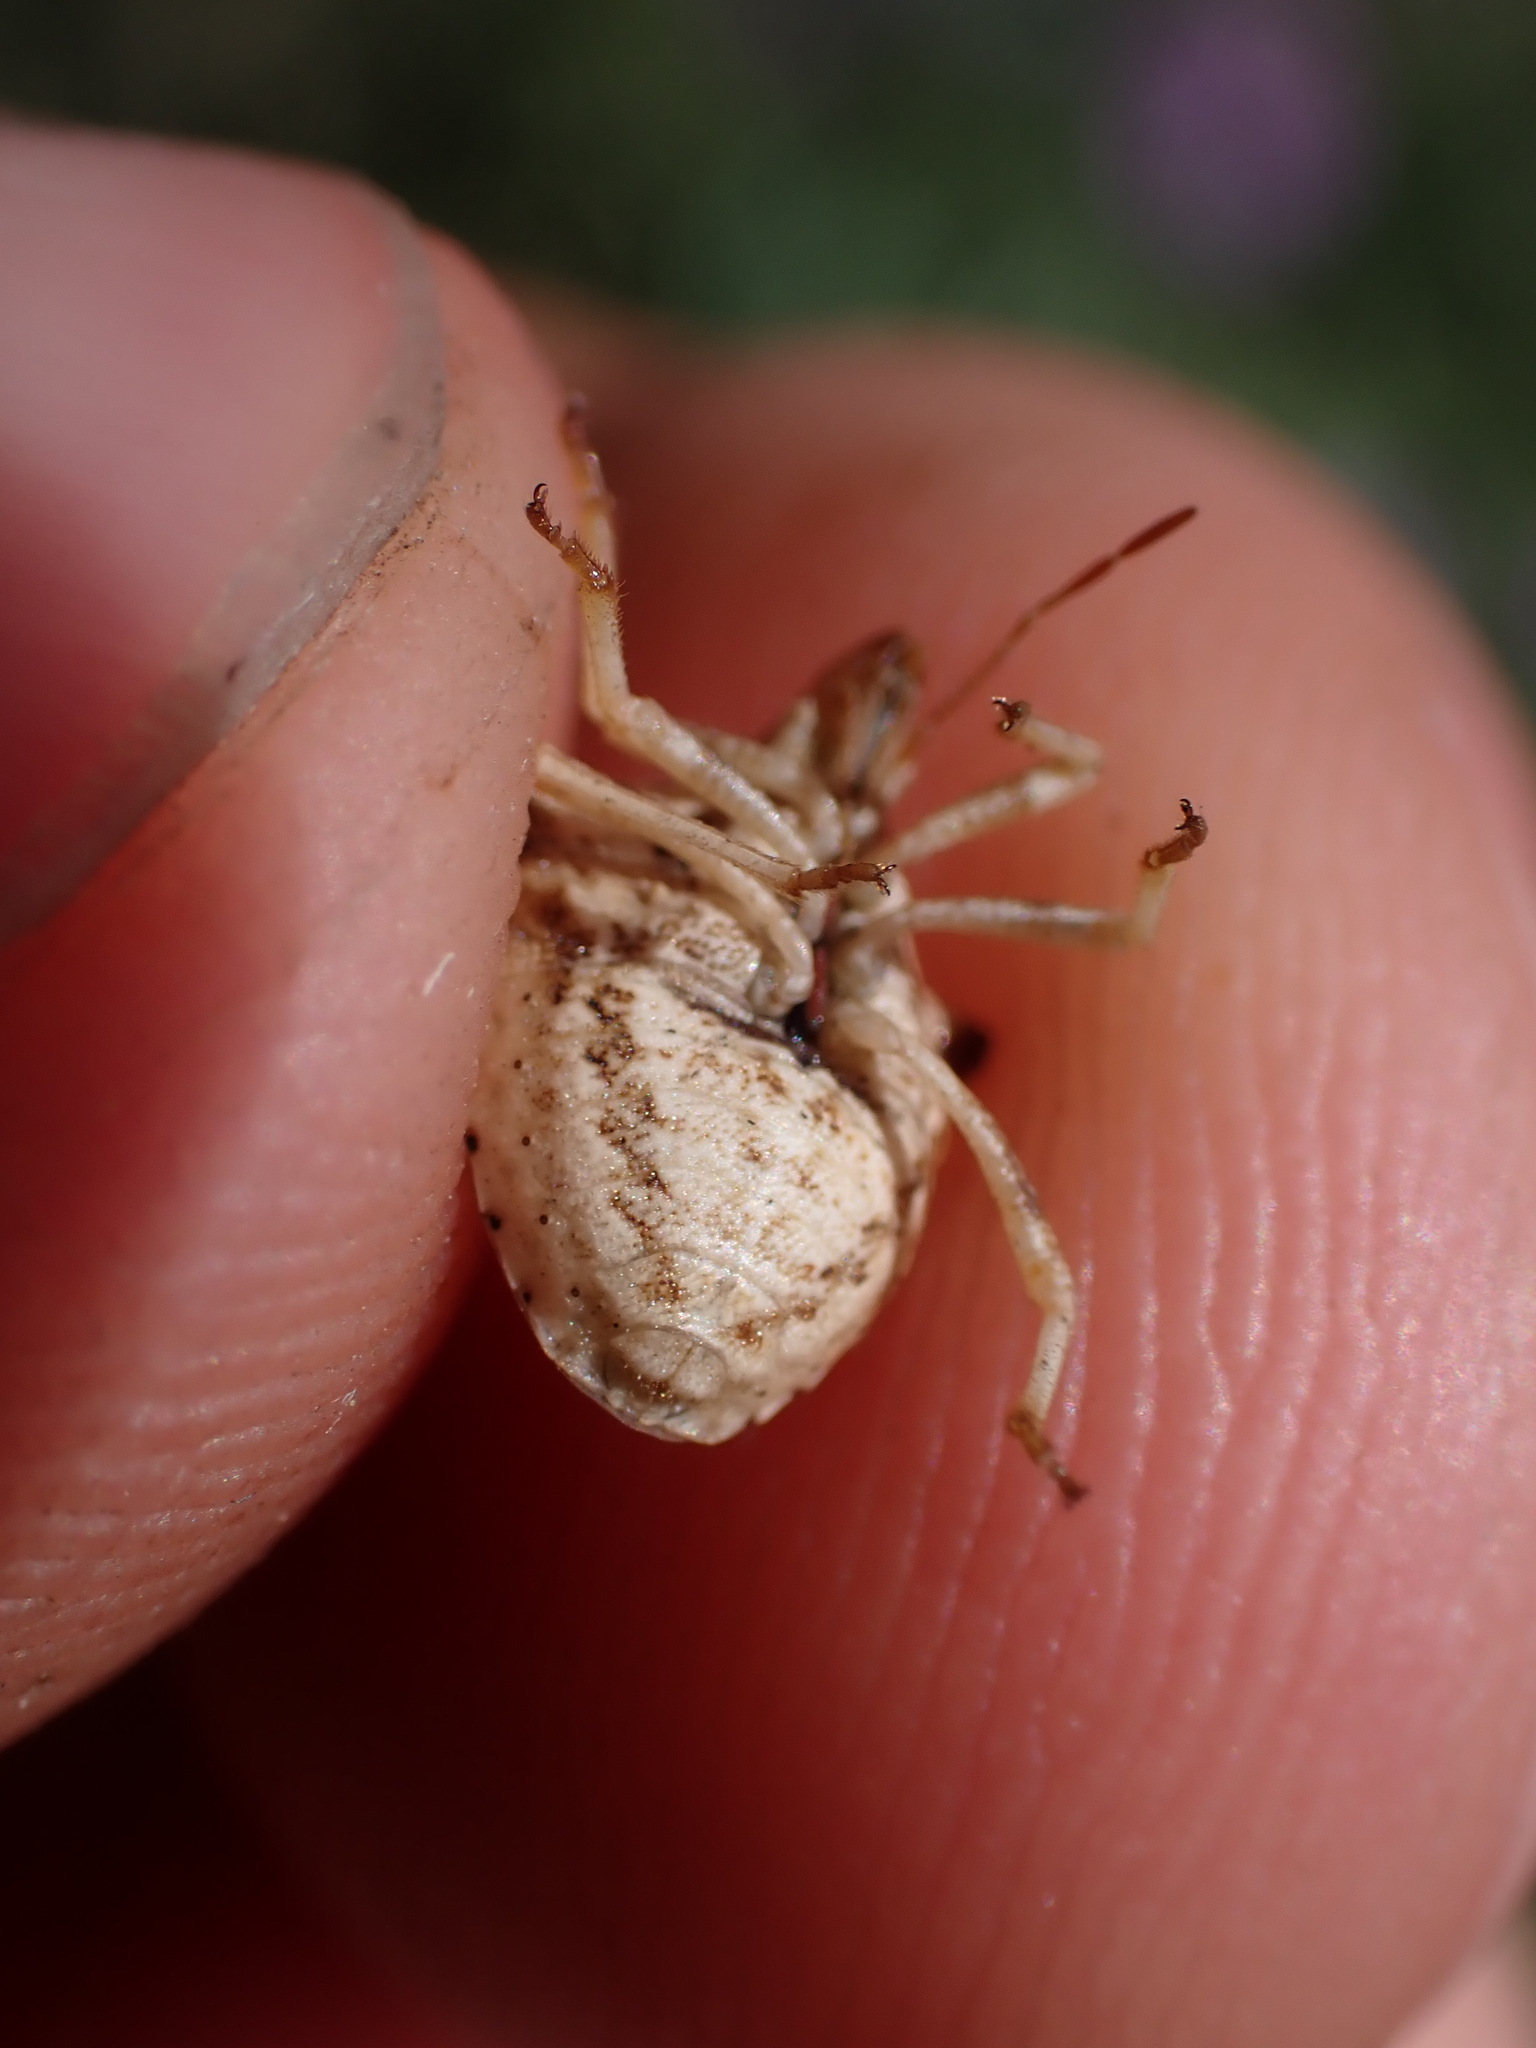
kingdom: Animalia
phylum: Arthropoda
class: Insecta
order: Hemiptera
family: Pentatomidae
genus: Ancyrosoma
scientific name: Ancyrosoma leucogrammes
